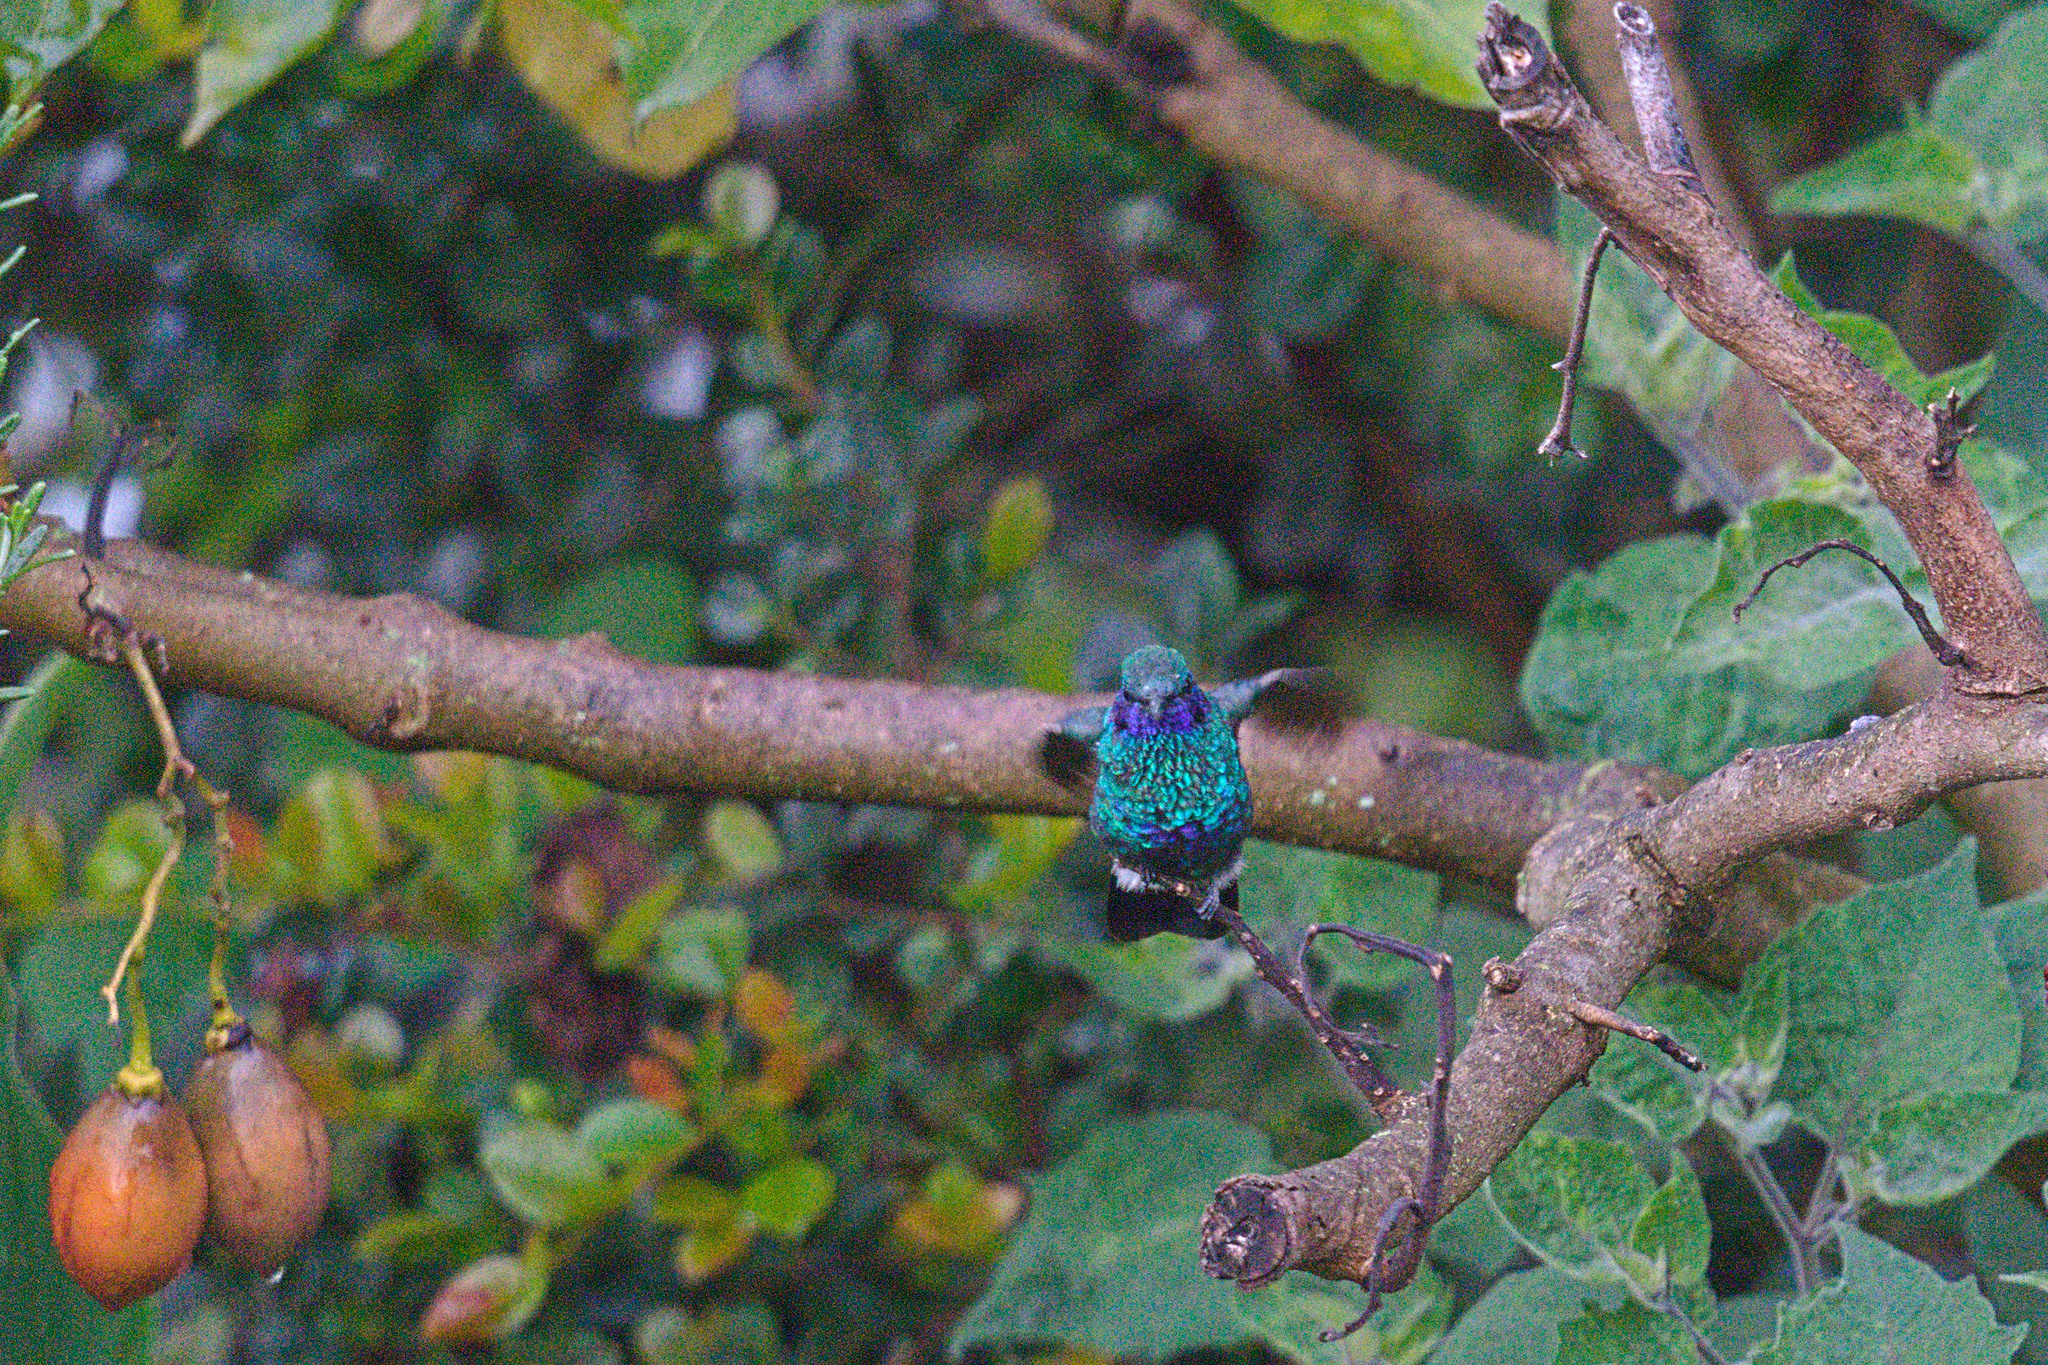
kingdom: Animalia
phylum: Chordata
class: Aves
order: Apodiformes
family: Trochilidae
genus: Colibri
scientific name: Colibri coruscans
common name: Sparkling violetear
